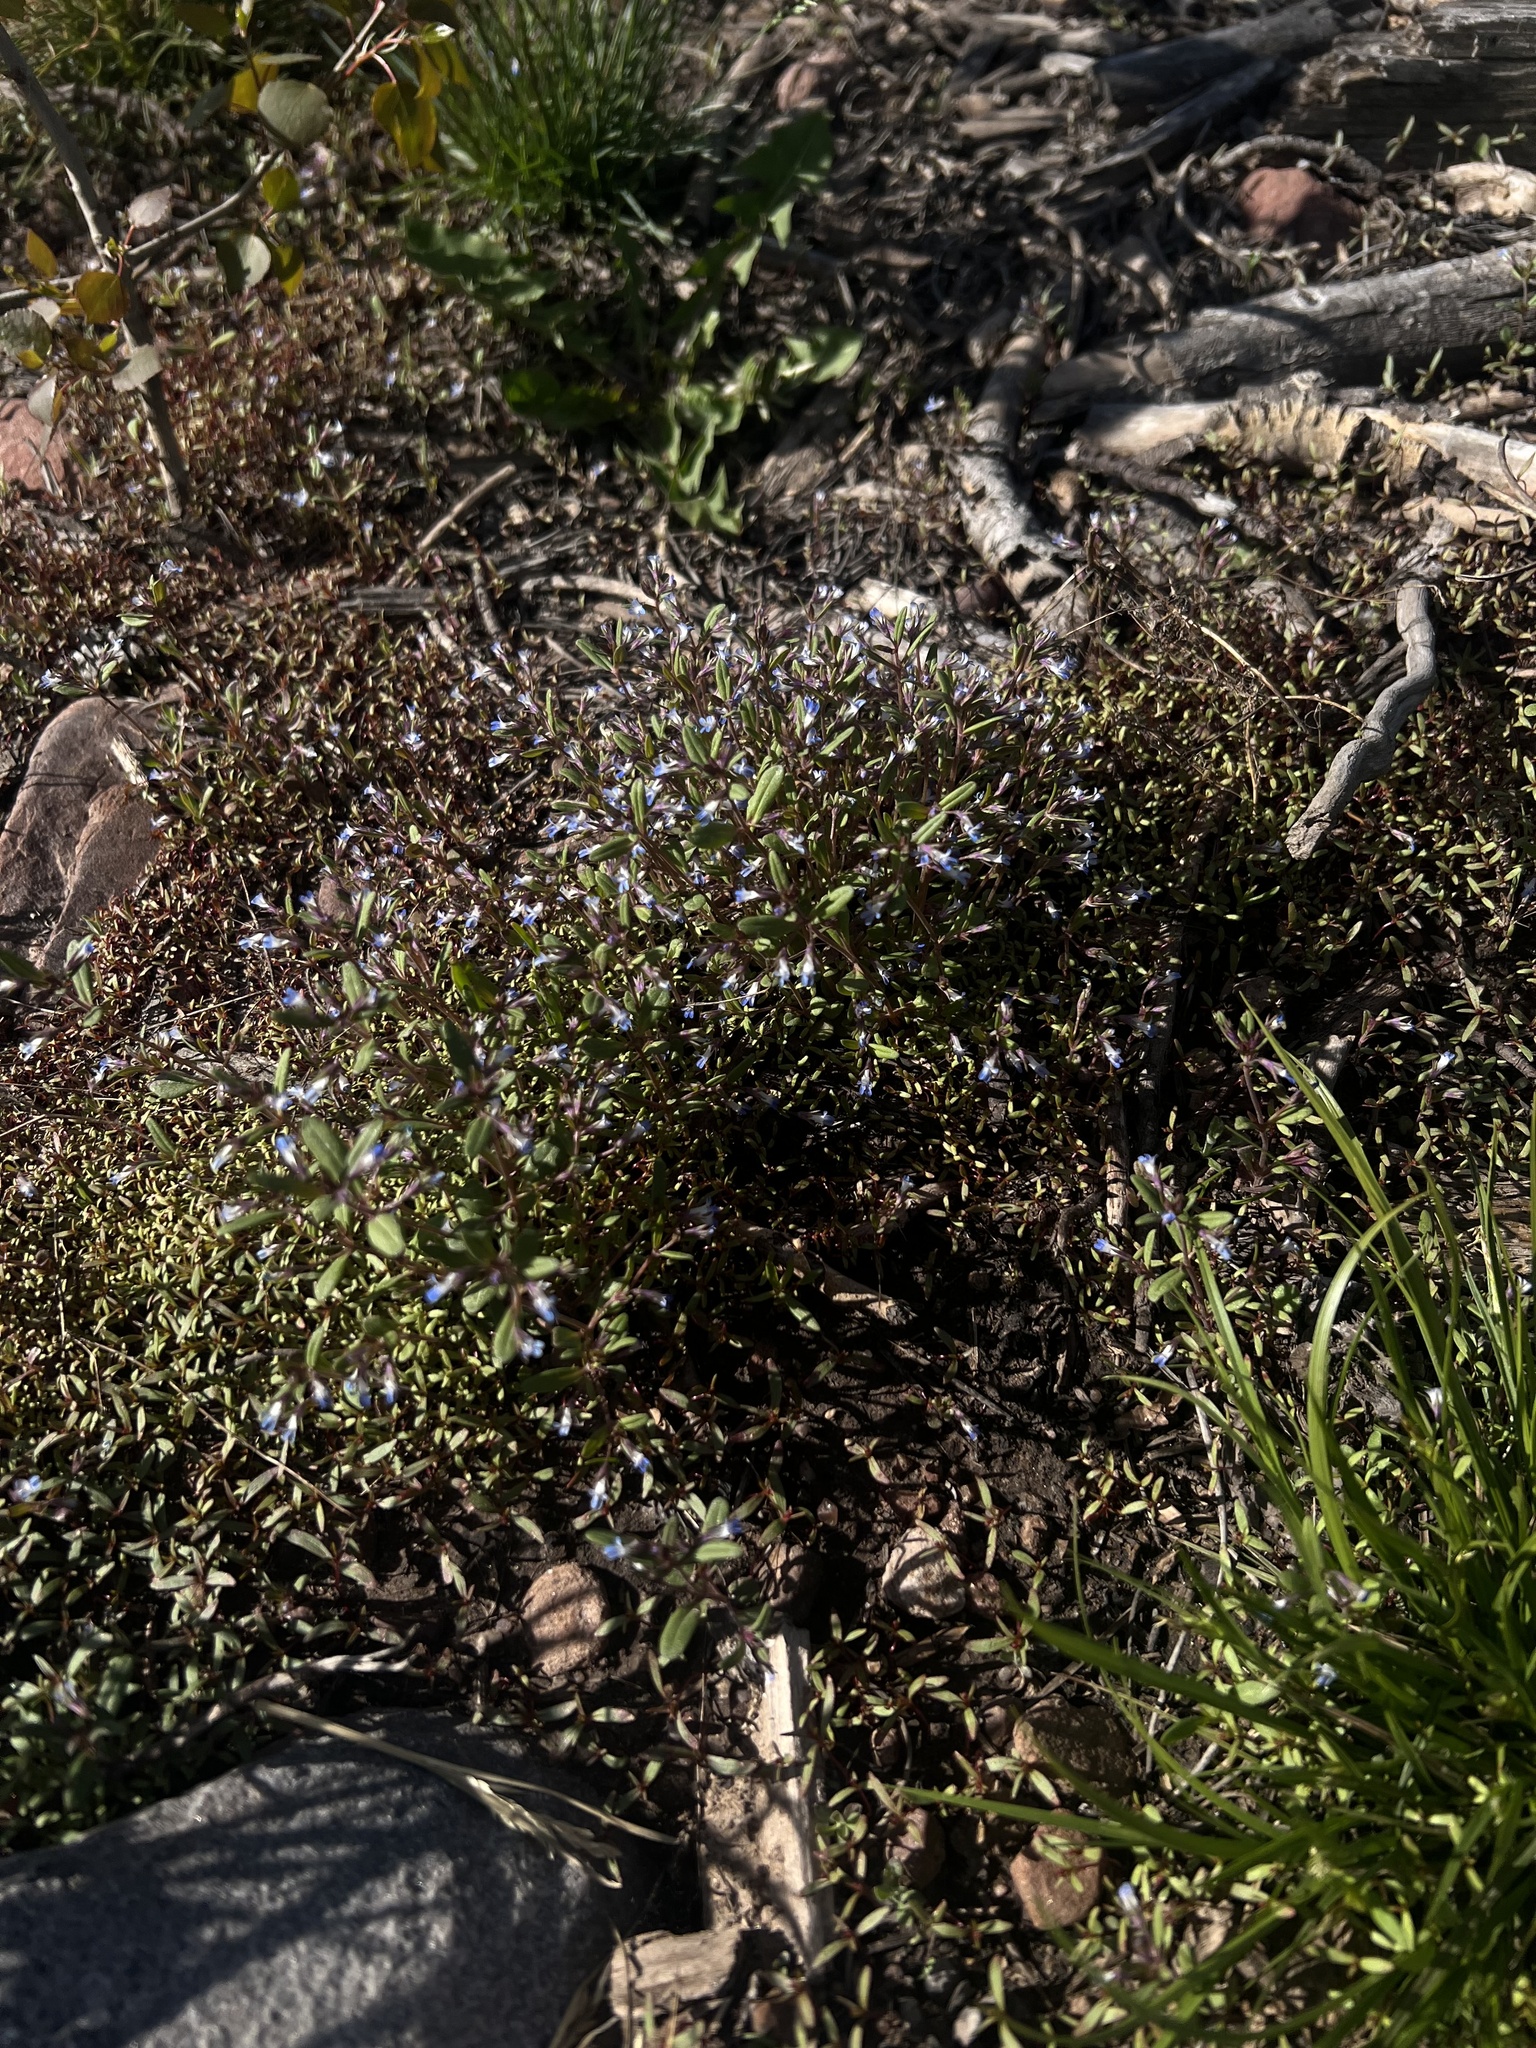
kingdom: Plantae
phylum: Tracheophyta
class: Magnoliopsida
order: Lamiales
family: Plantaginaceae
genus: Collinsia
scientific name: Collinsia parviflora
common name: Blue-lips
